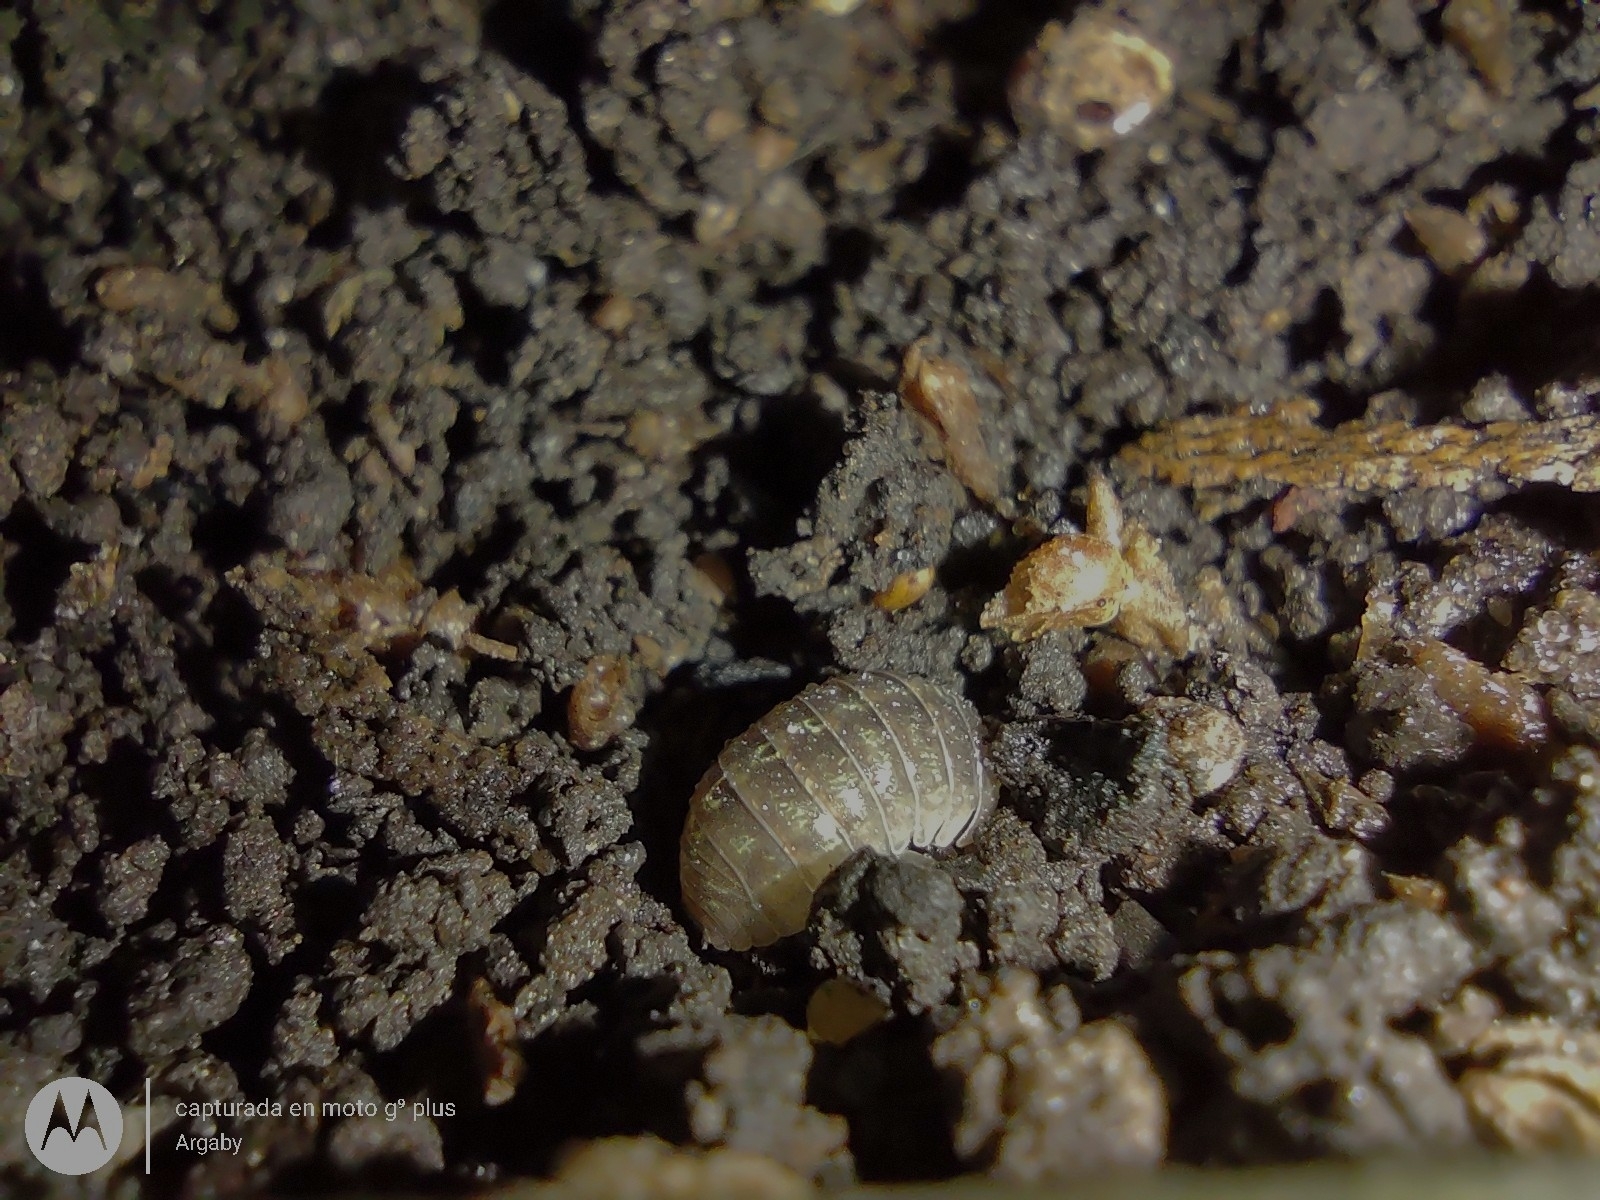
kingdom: Animalia
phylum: Arthropoda
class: Malacostraca
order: Isopoda
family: Armadillidiidae
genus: Armadillidium
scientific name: Armadillidium vulgare
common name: Common pill woodlouse
